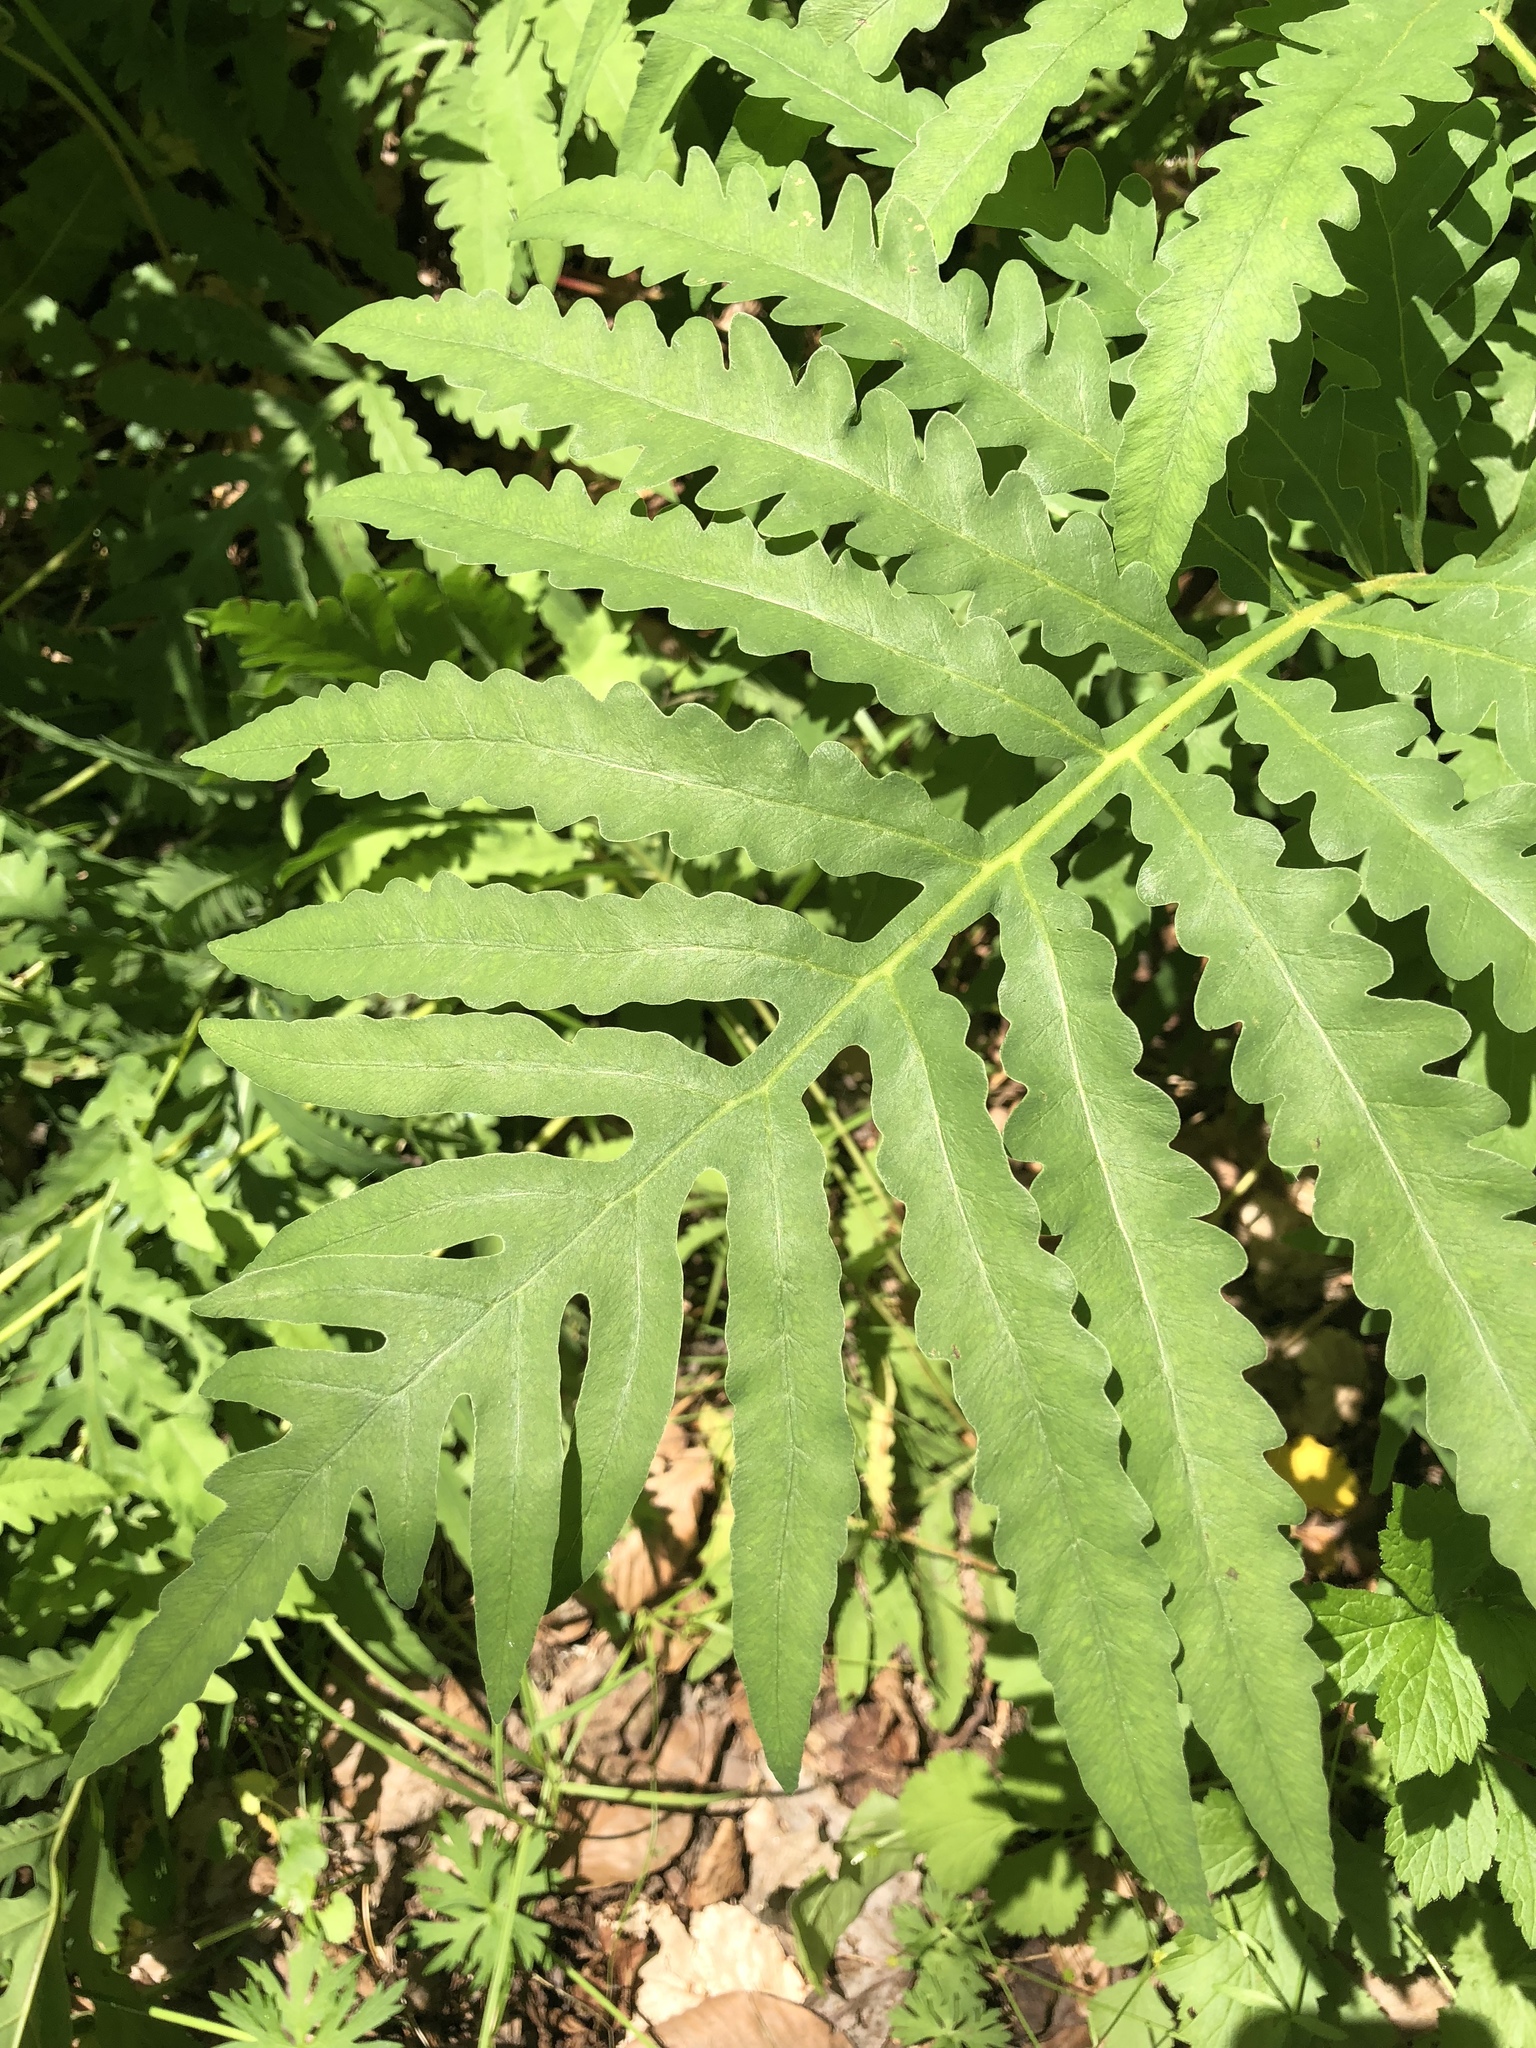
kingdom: Plantae
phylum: Tracheophyta
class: Polypodiopsida
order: Polypodiales
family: Onocleaceae
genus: Onoclea
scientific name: Onoclea sensibilis
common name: Sensitive fern
